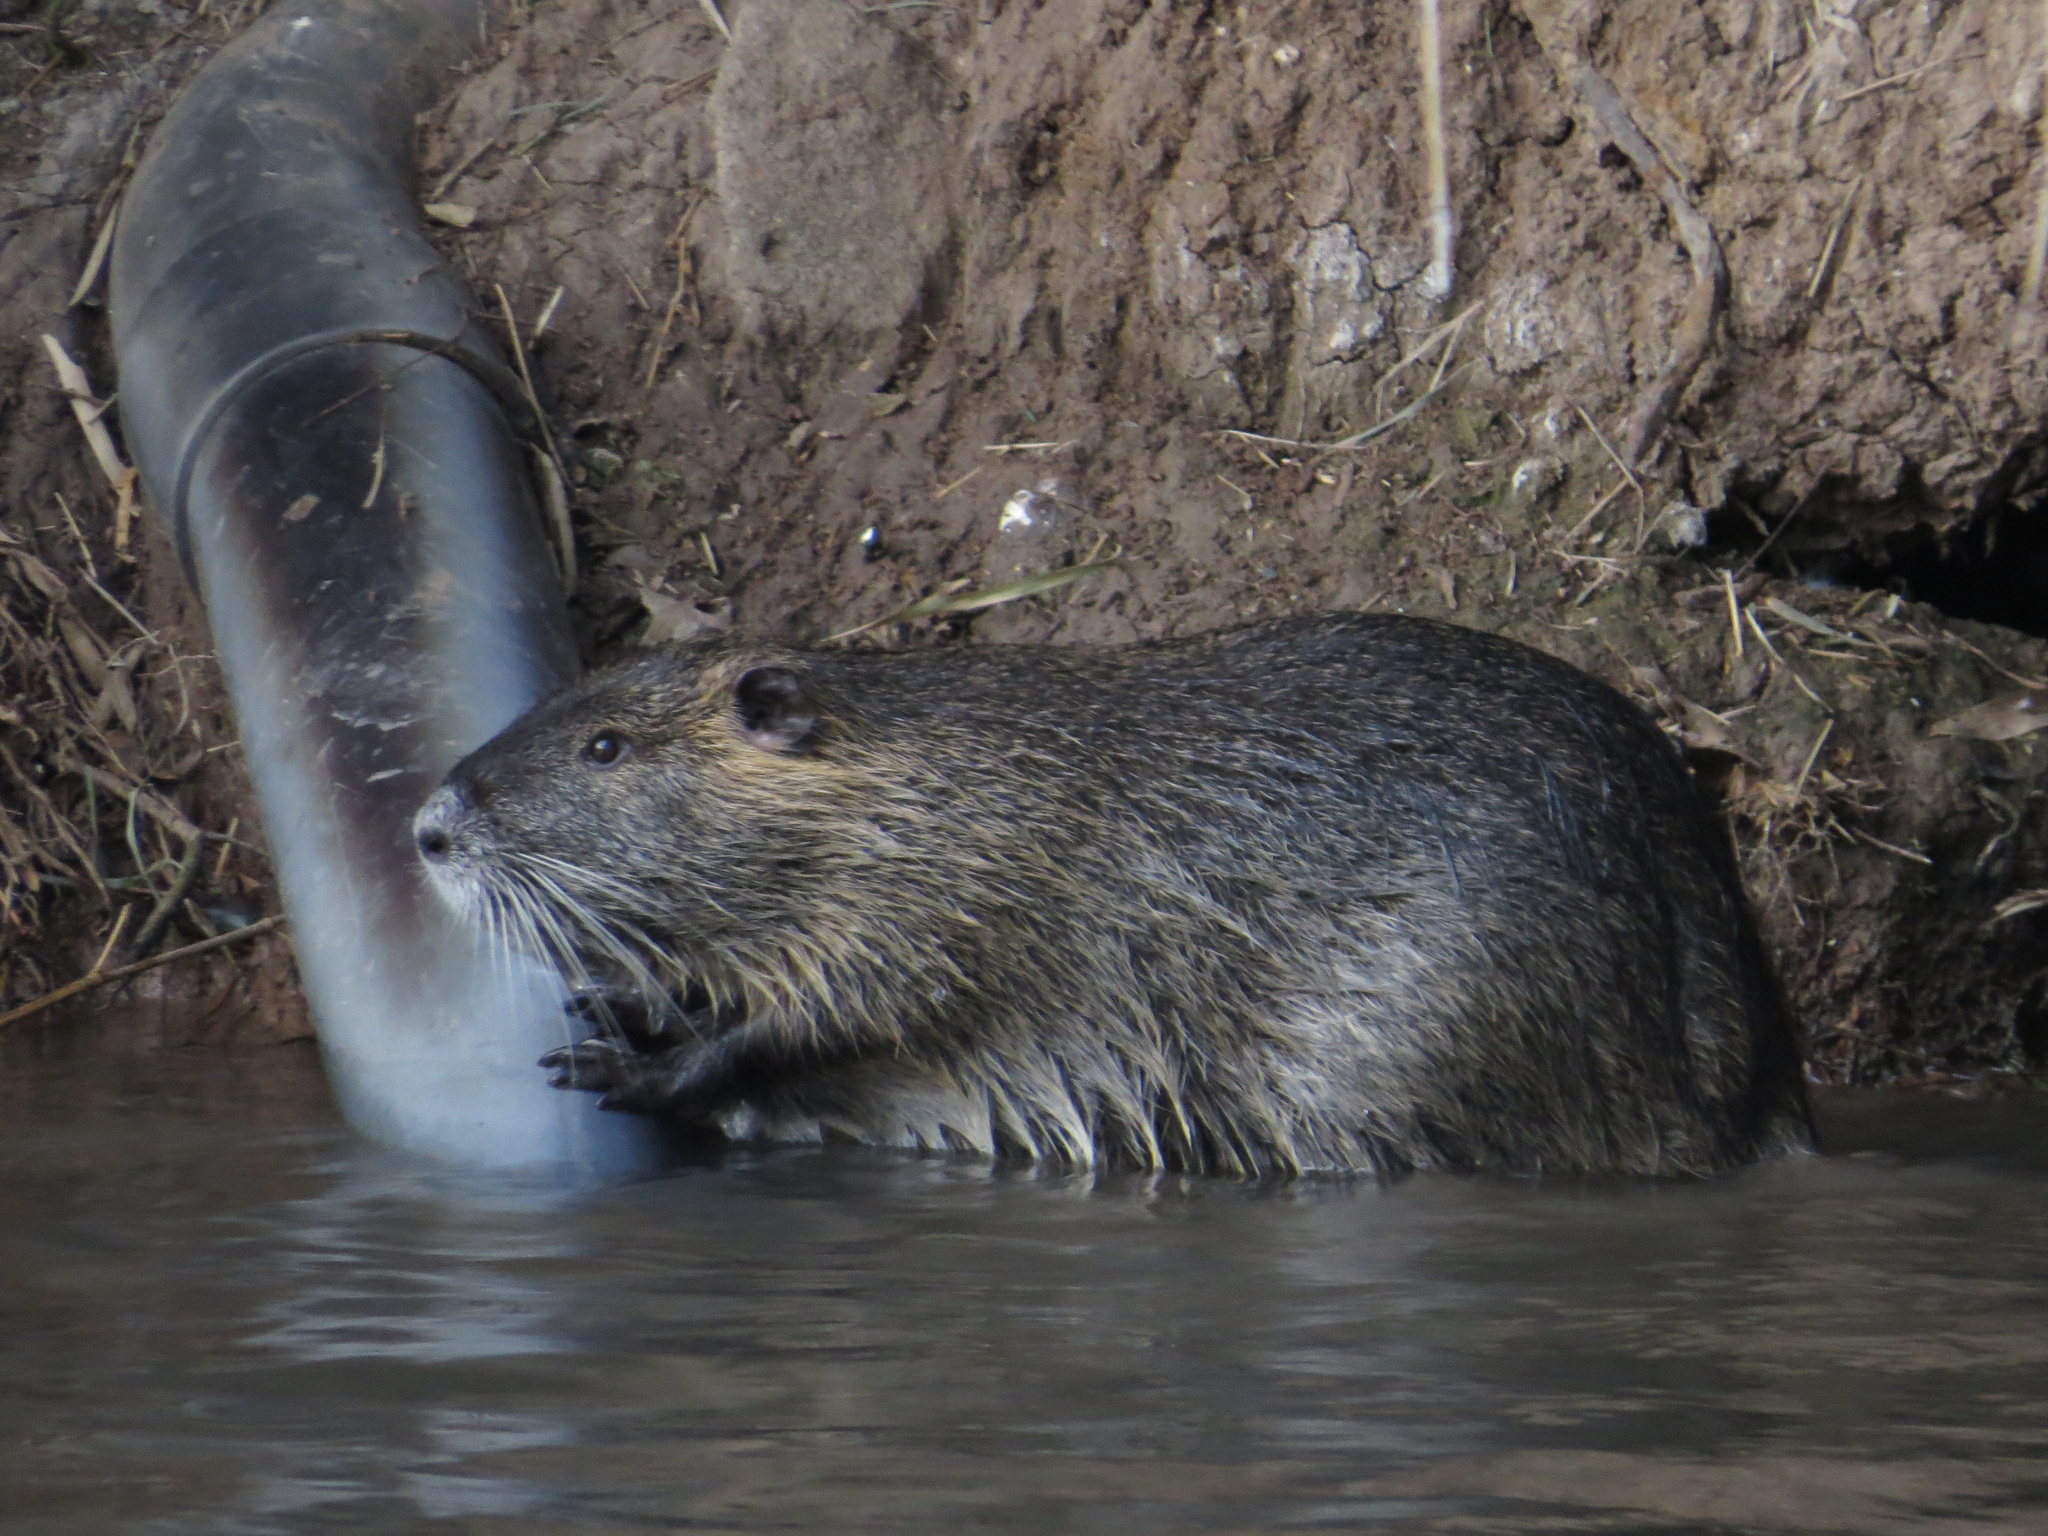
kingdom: Animalia
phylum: Chordata
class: Mammalia
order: Rodentia
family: Myocastoridae
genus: Myocastor
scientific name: Myocastor coypus
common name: Coypu
